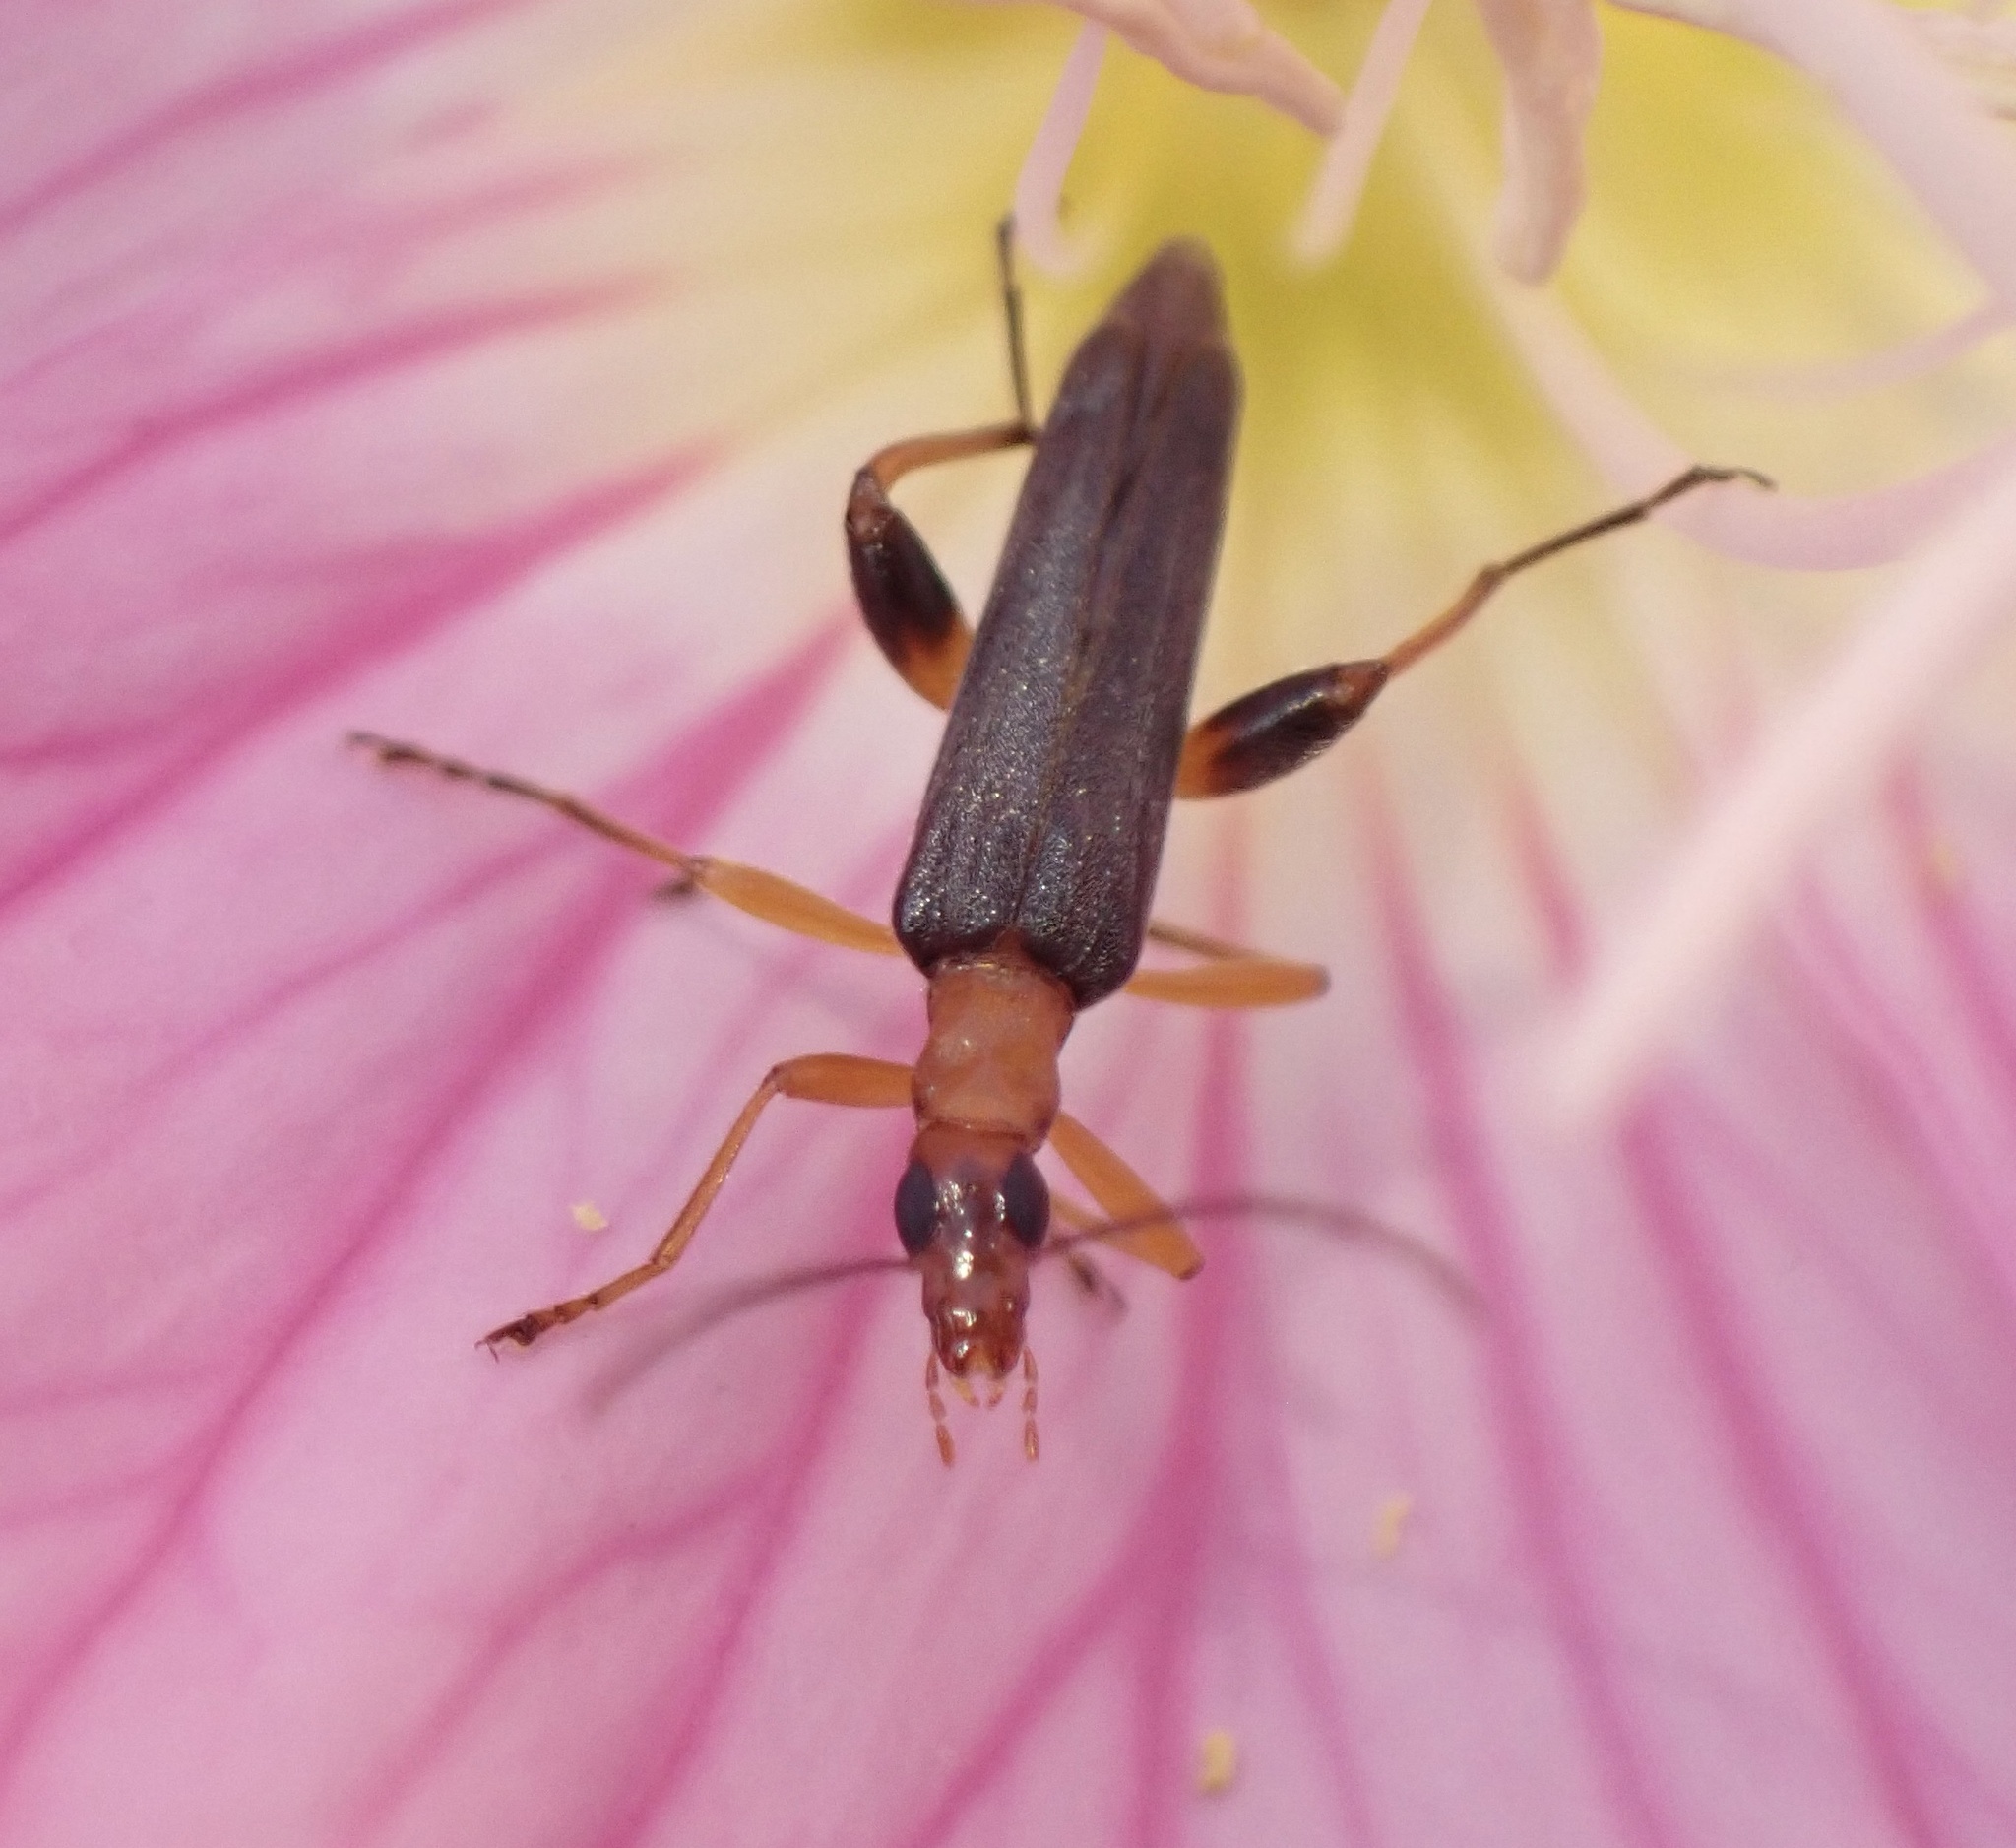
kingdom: Animalia
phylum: Arthropoda
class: Insecta
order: Coleoptera
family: Oedemeridae
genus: Oedemera
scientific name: Oedemera murinipennis
